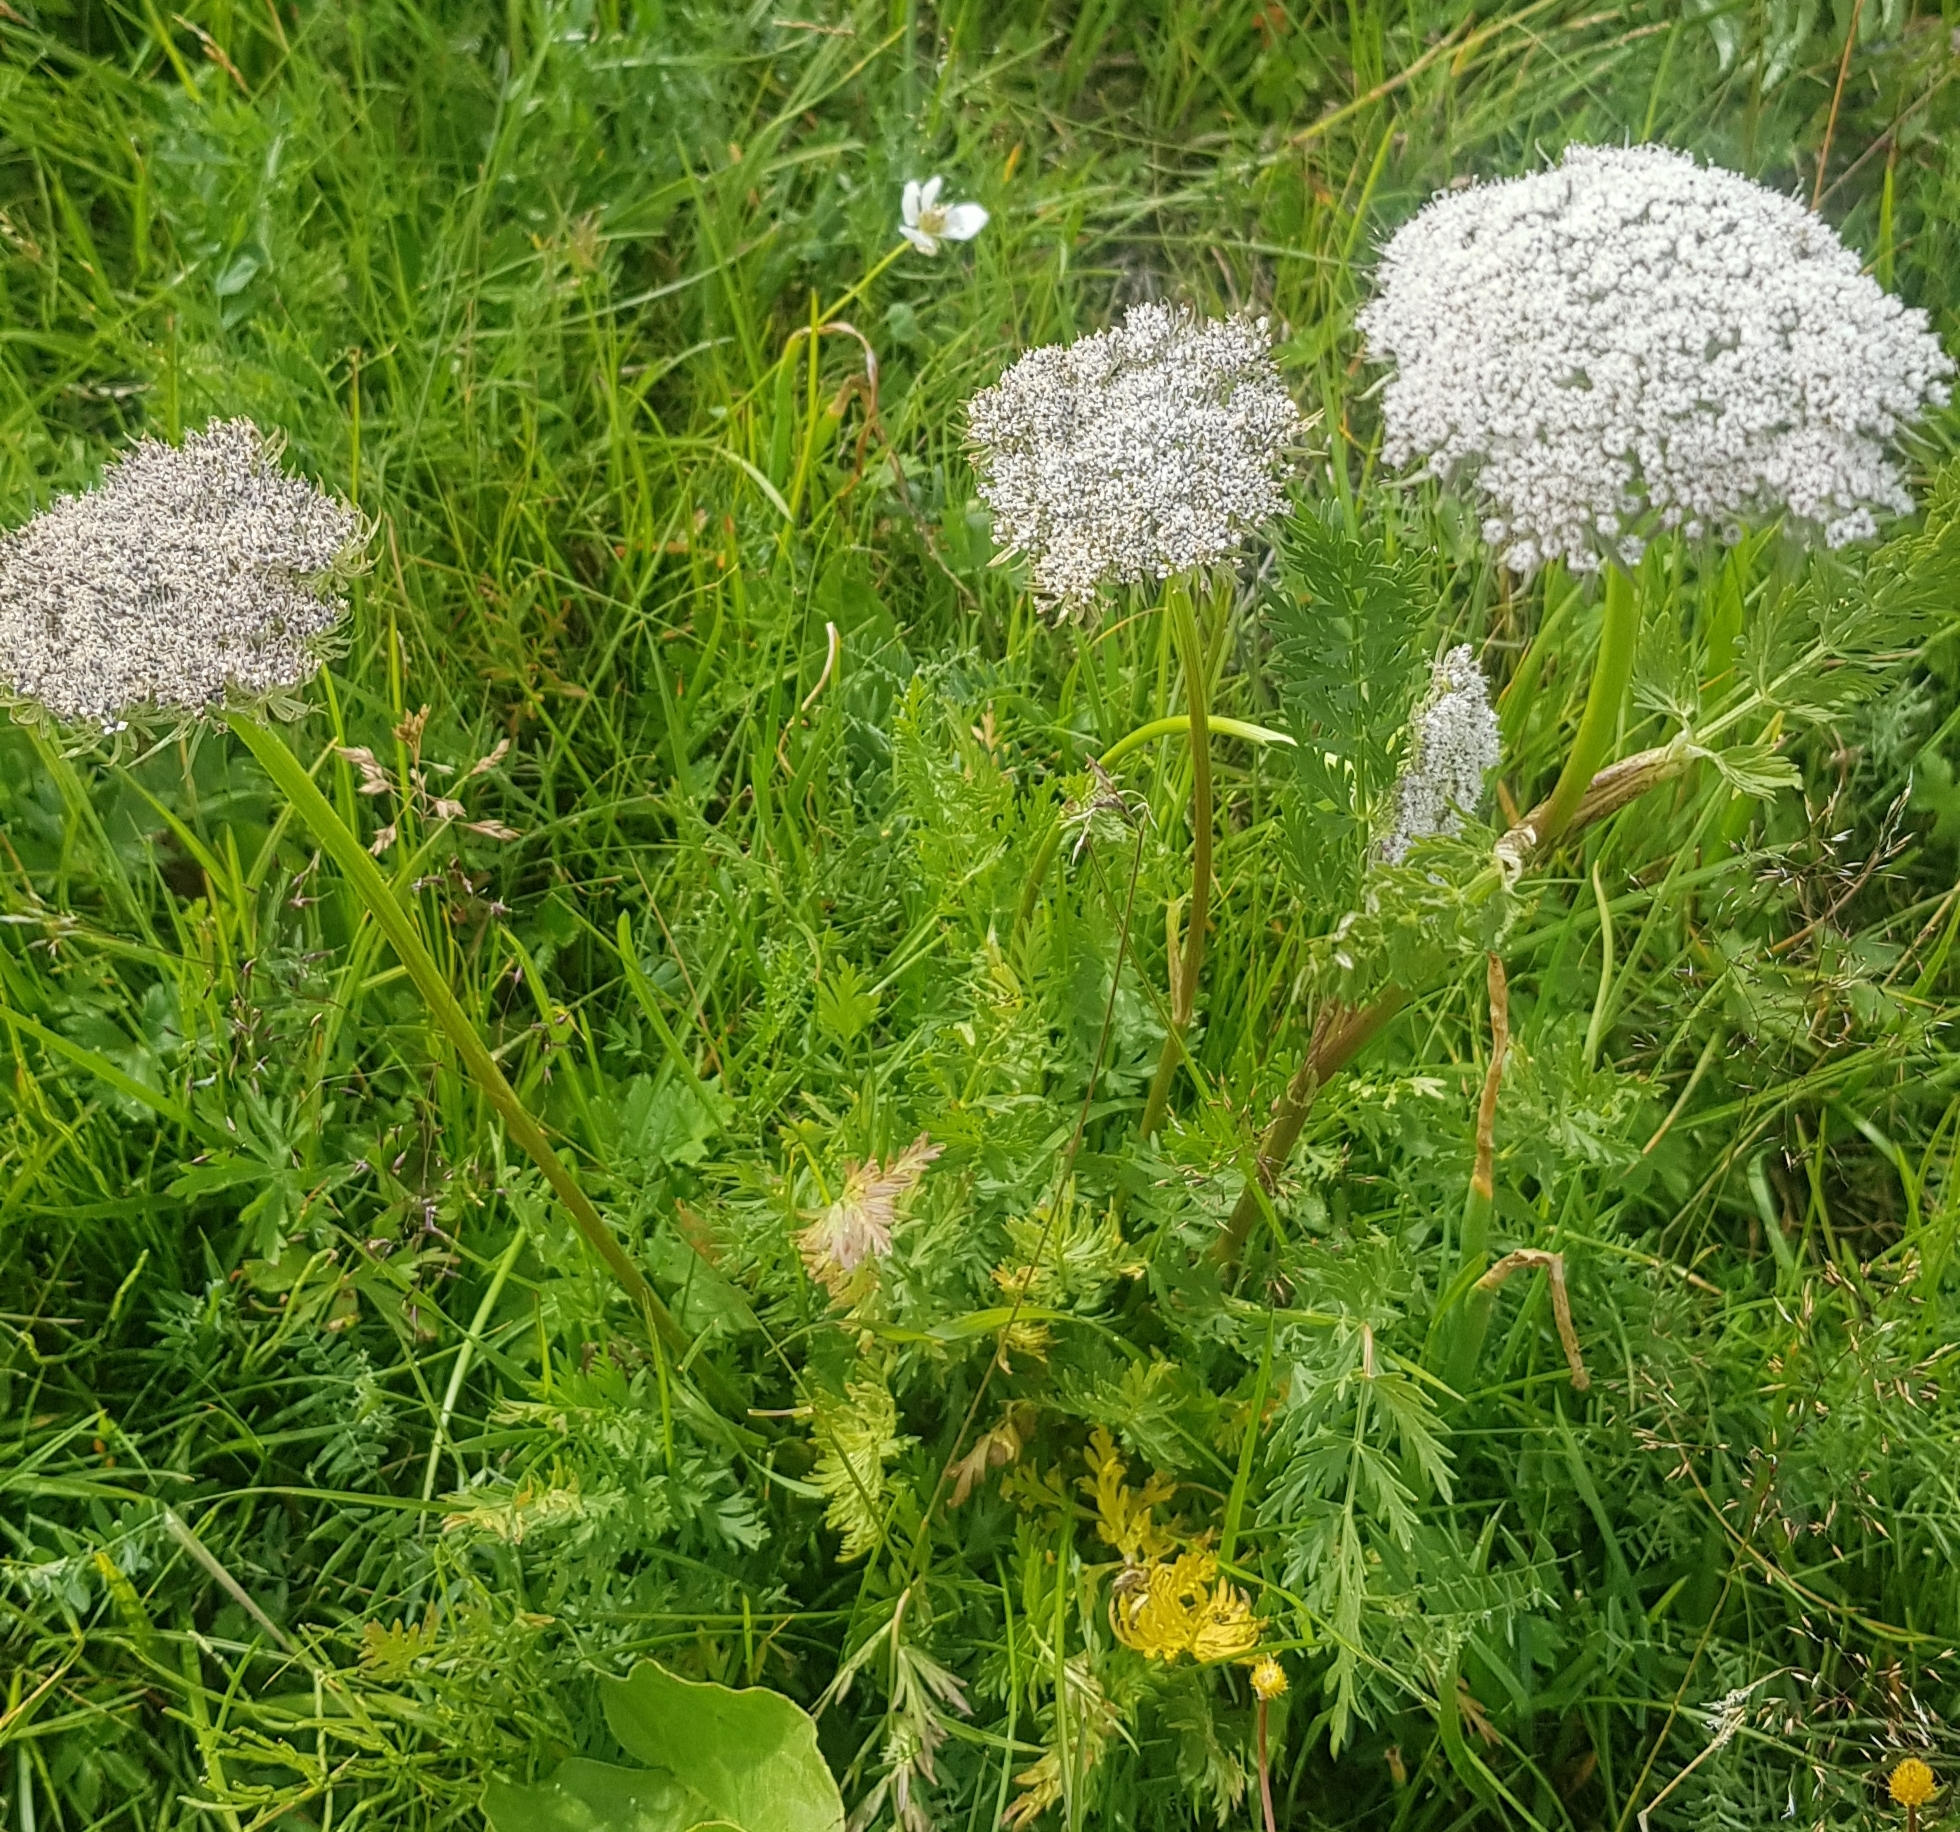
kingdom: Plantae
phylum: Tracheophyta
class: Magnoliopsida
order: Apiales
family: Apiaceae
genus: Seseli
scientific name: Seseli condensatum
